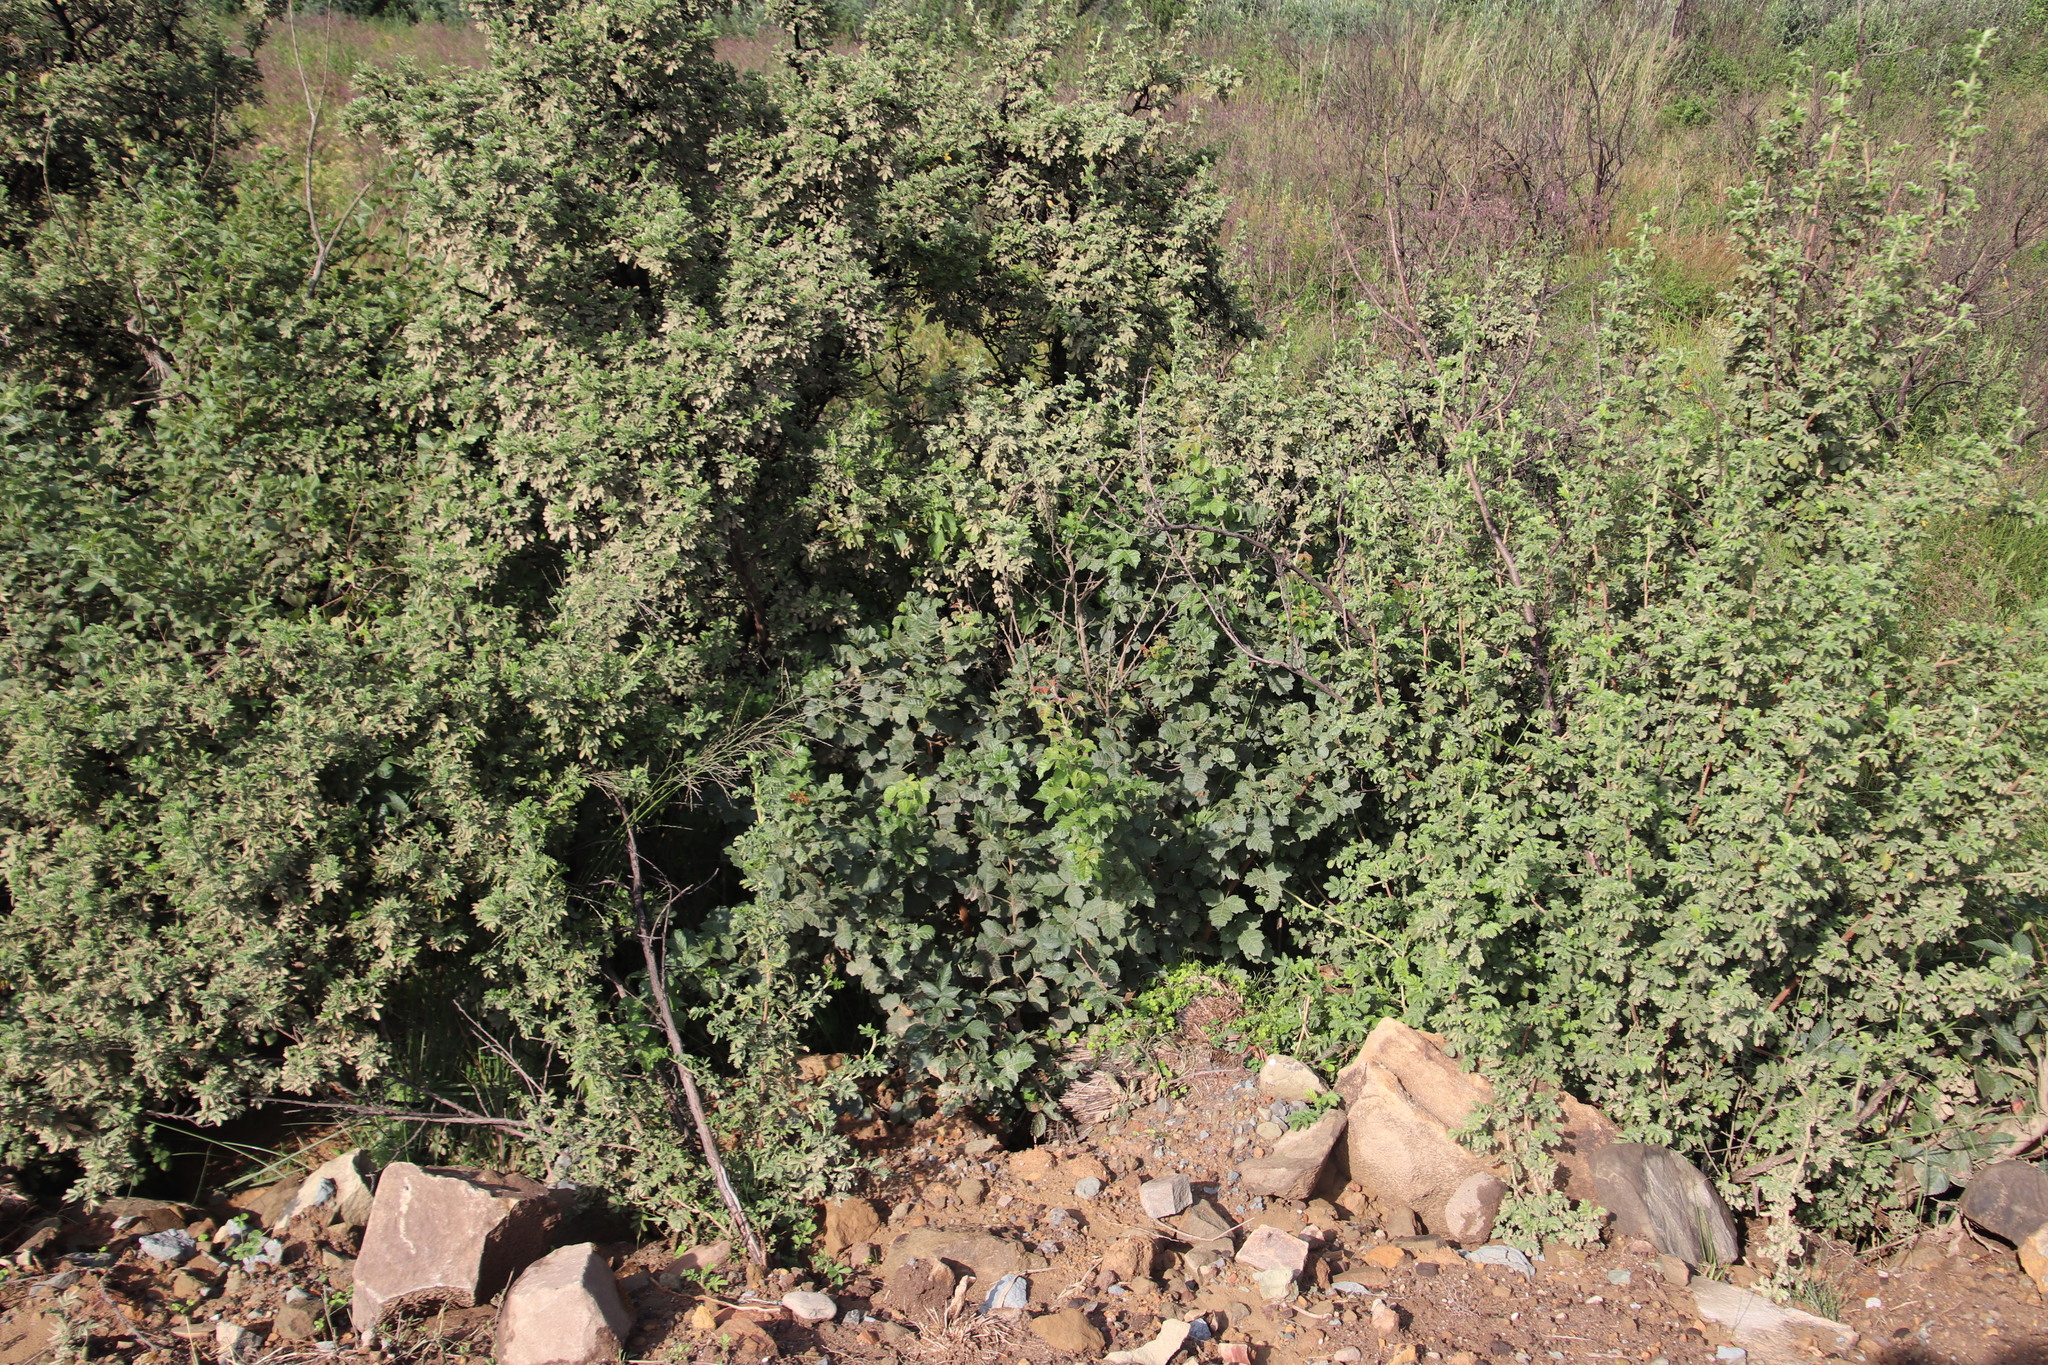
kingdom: Plantae
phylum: Tracheophyta
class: Magnoliopsida
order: Sapindales
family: Anacardiaceae
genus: Searsia
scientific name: Searsia dentata
